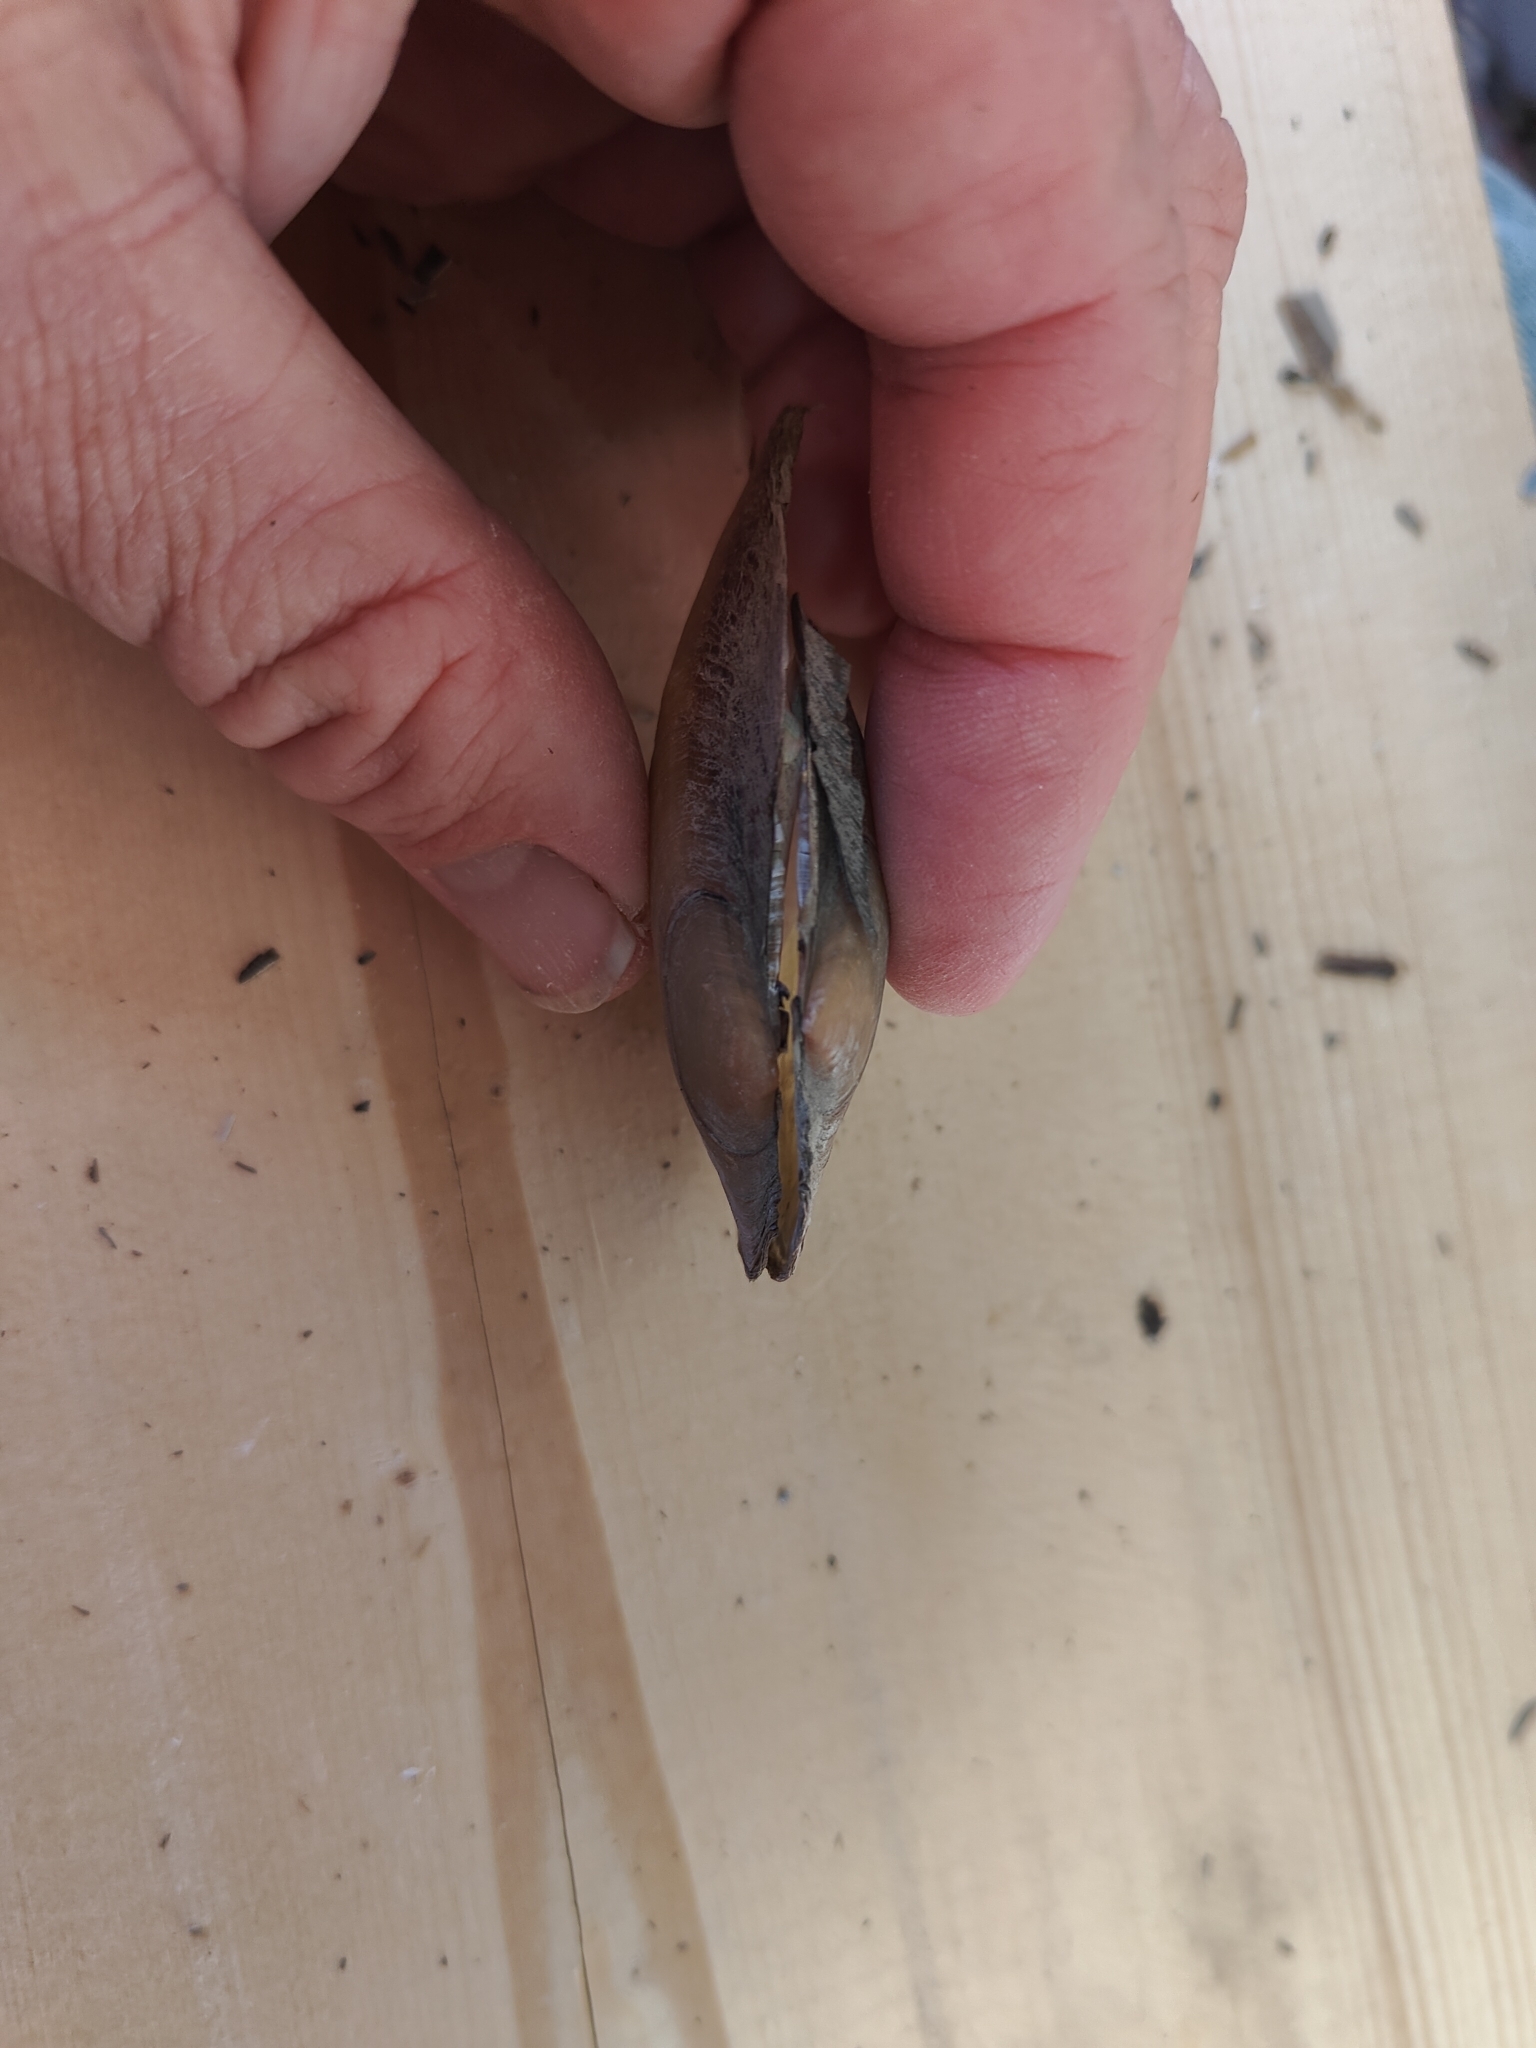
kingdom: Animalia
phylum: Mollusca
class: Bivalvia
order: Unionida
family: Unionidae
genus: Potamilus
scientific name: Potamilus fragilis
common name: Fragile papershell
